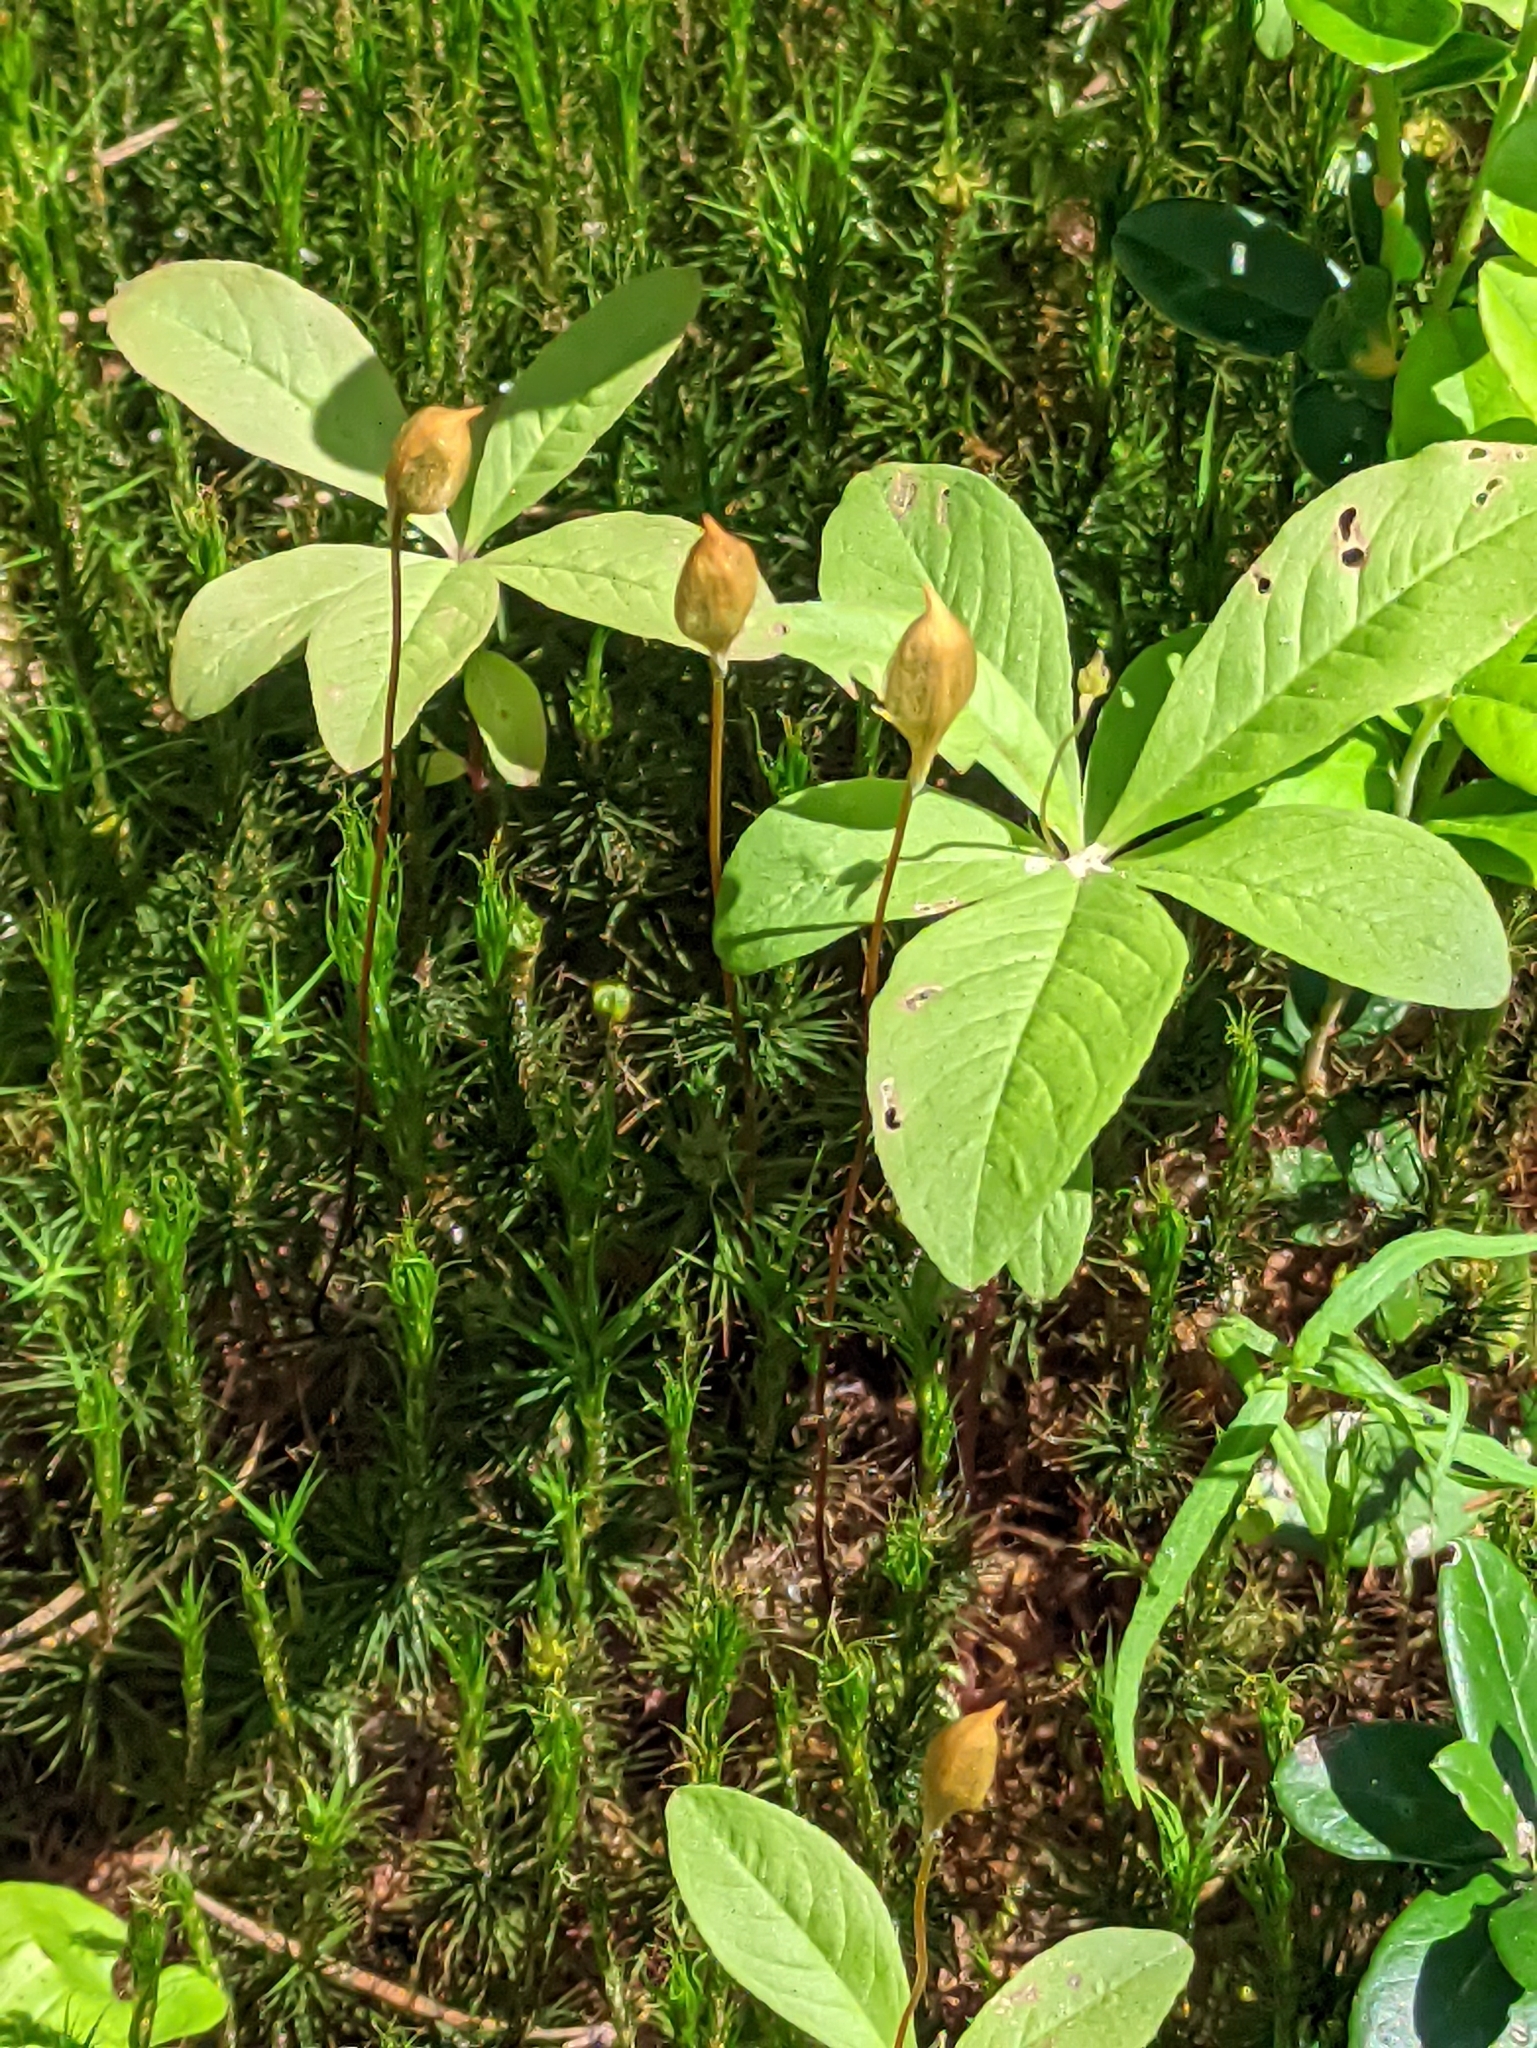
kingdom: Plantae
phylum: Tracheophyta
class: Magnoliopsida
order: Ericales
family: Primulaceae
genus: Lysimachia
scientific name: Lysimachia europaea
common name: Arctic starflower
